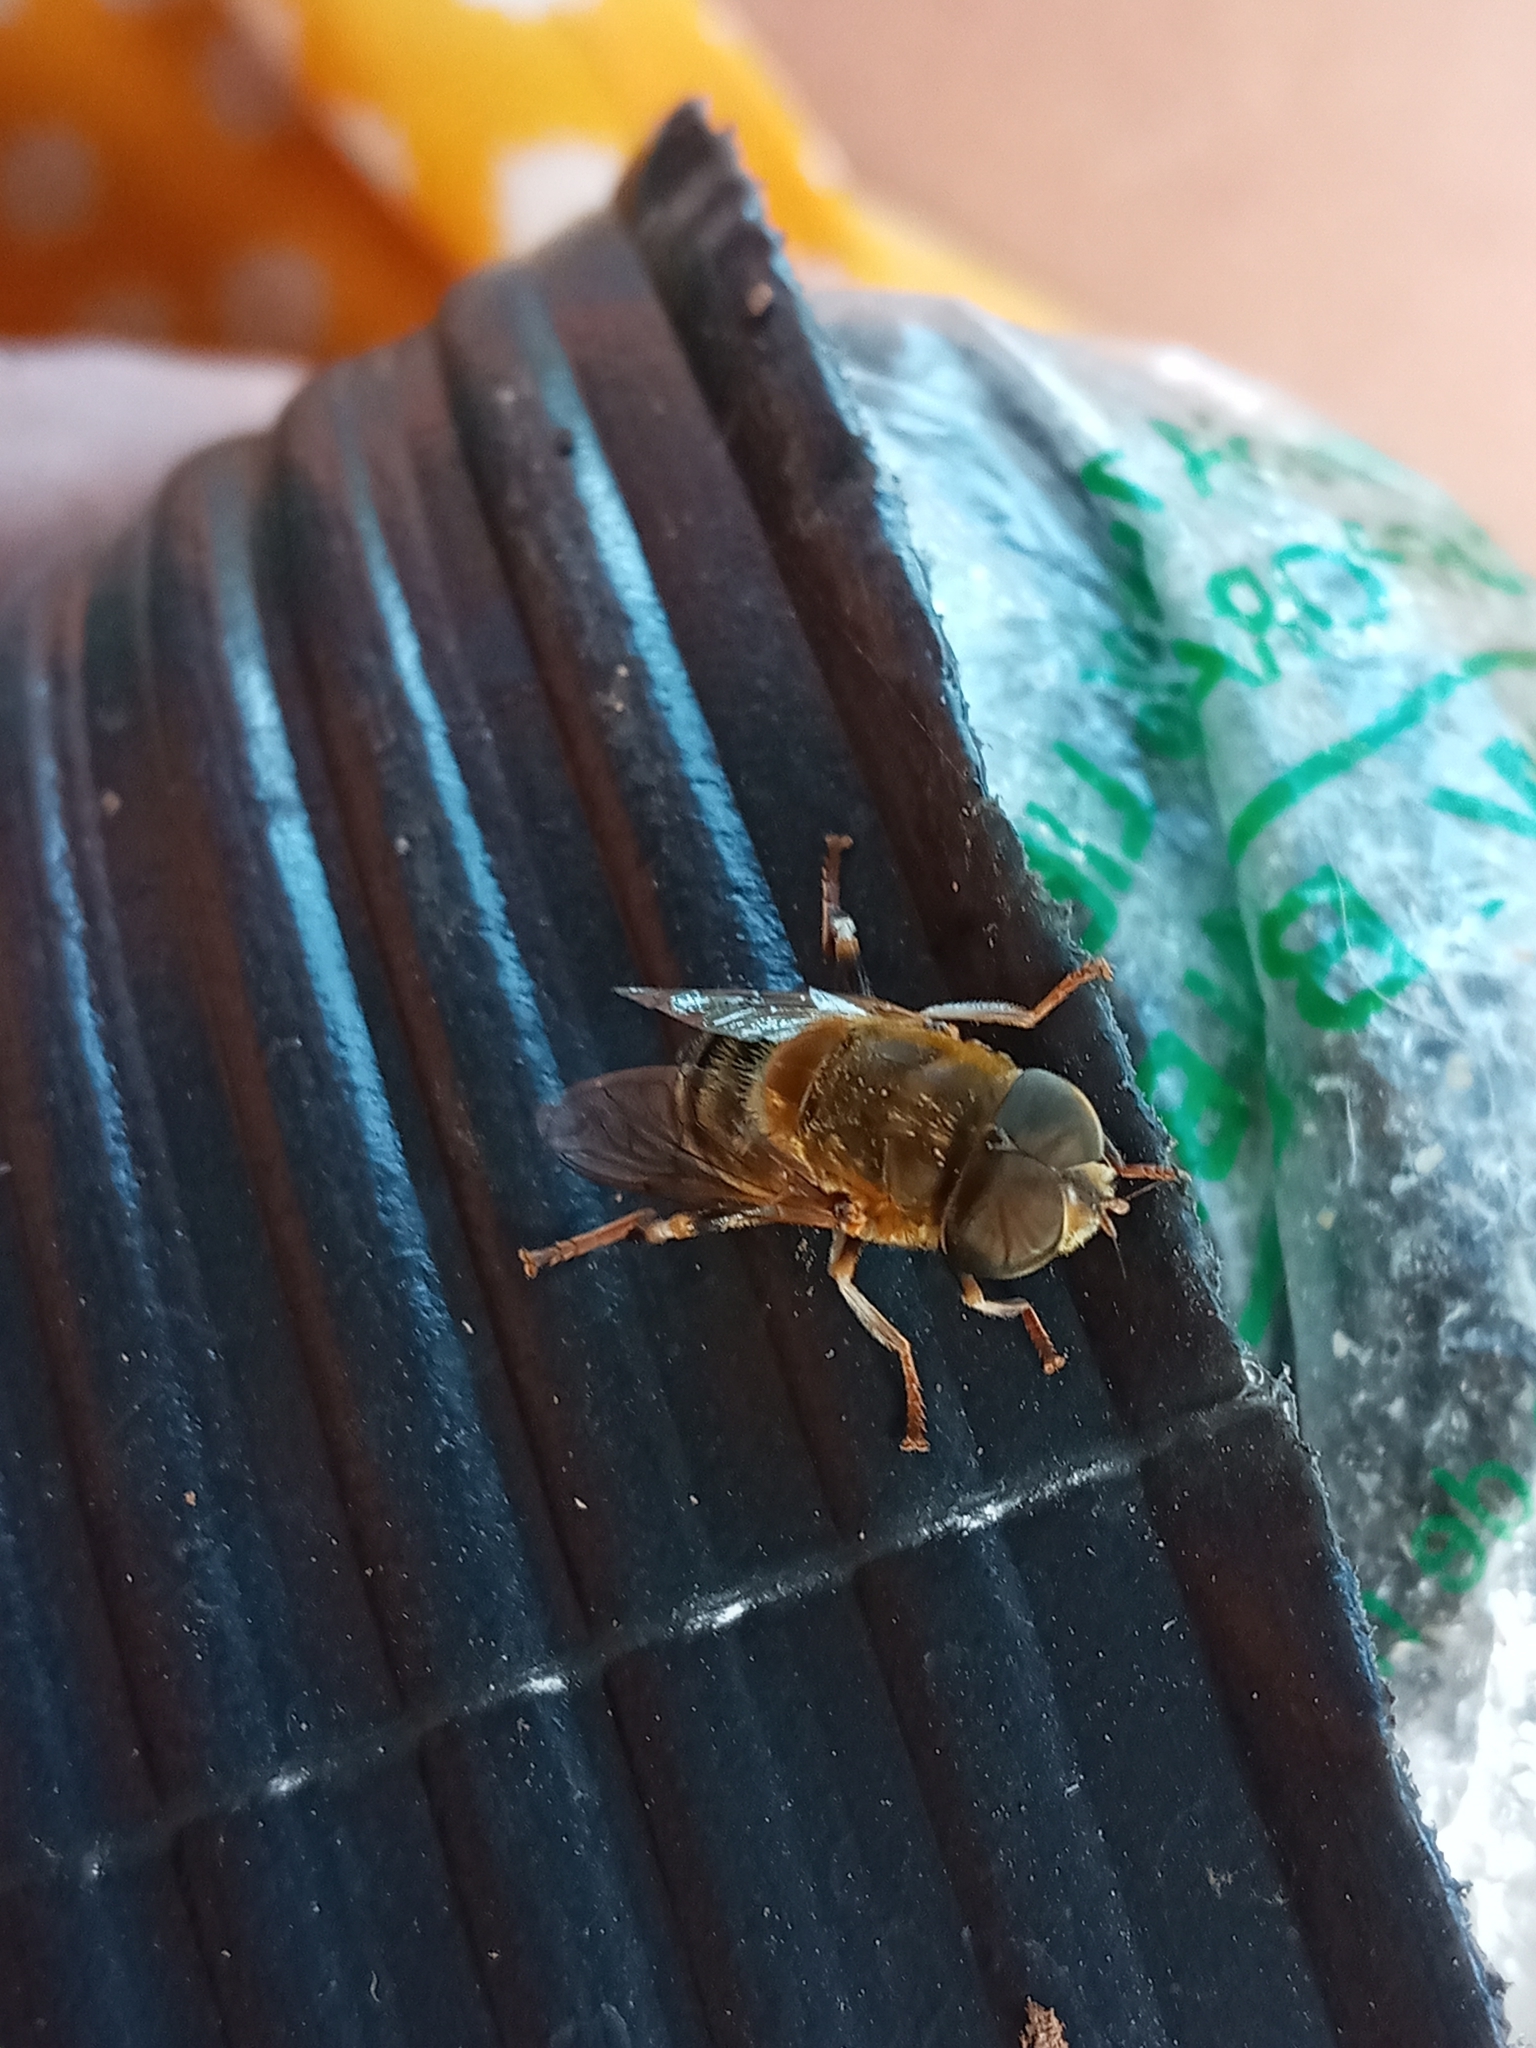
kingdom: Animalia
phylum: Arthropoda
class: Insecta
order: Diptera
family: Syrphidae
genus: Palpada
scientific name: Palpada mexicana
